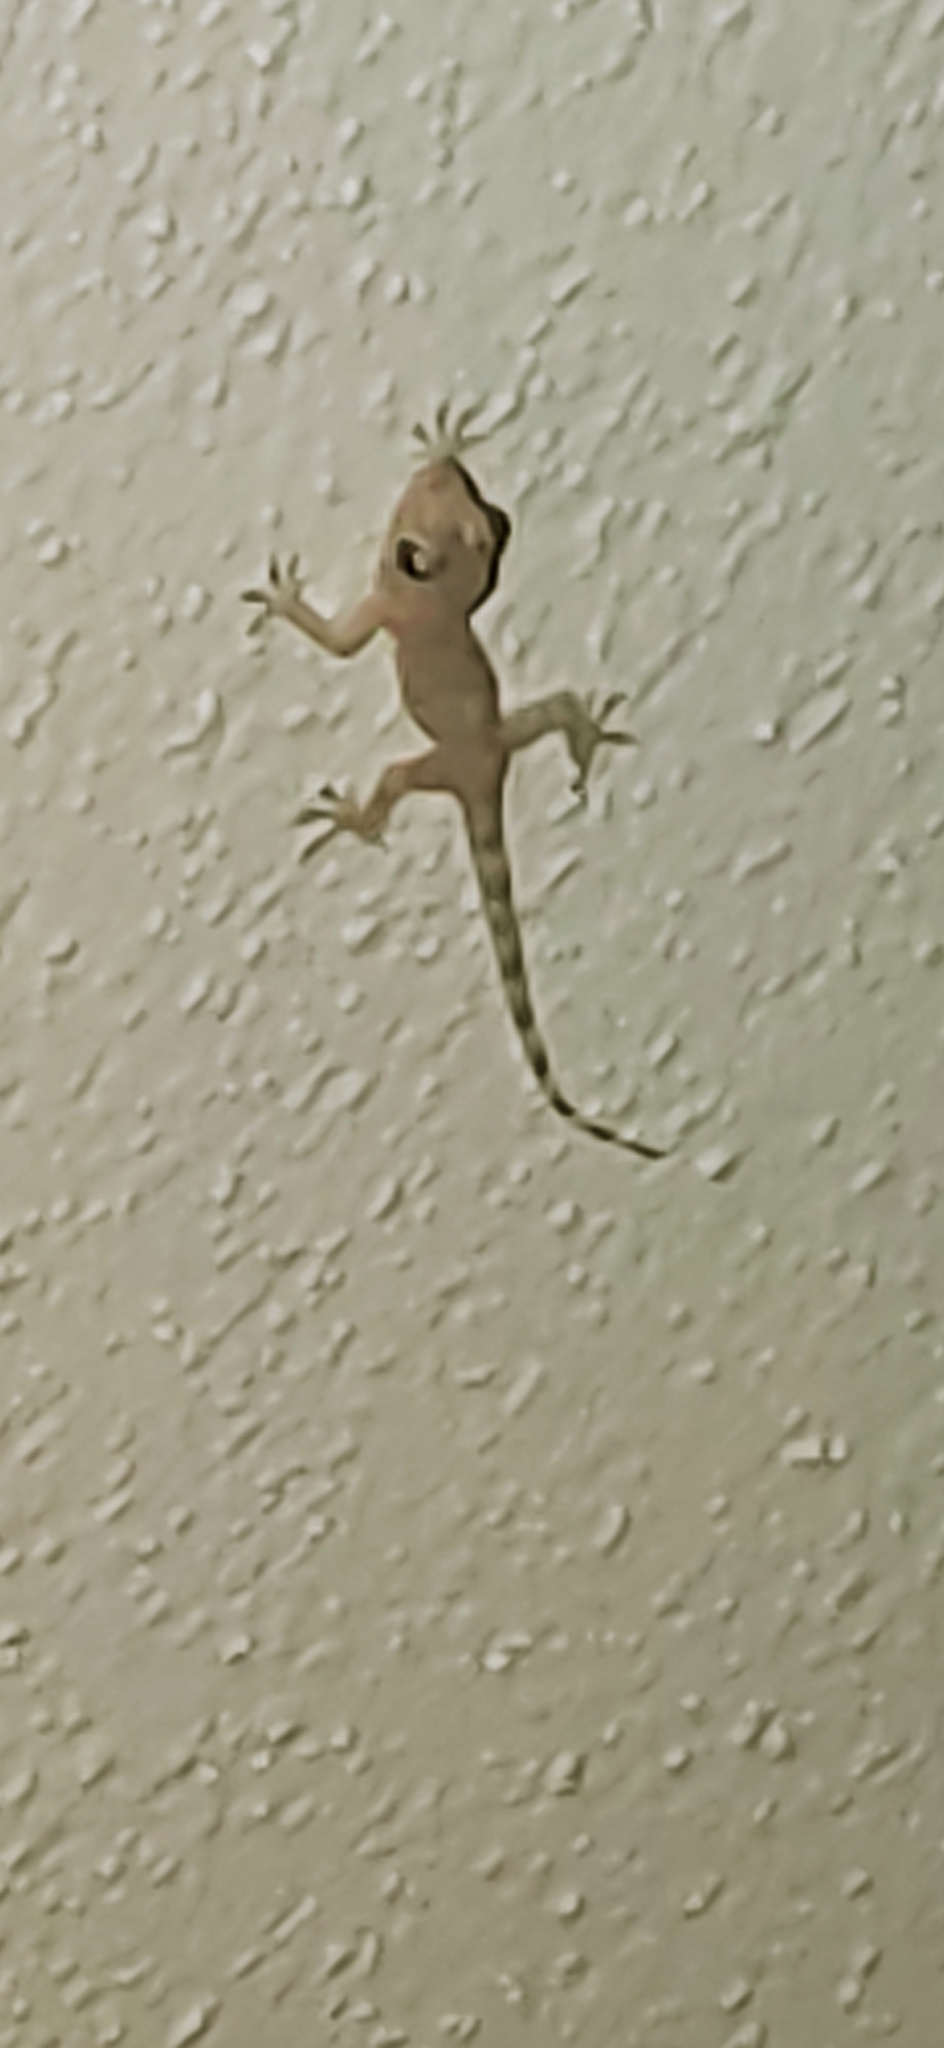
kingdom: Animalia
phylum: Chordata
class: Squamata
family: Gekkonidae
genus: Hemidactylus
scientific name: Hemidactylus mabouia
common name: House gecko
